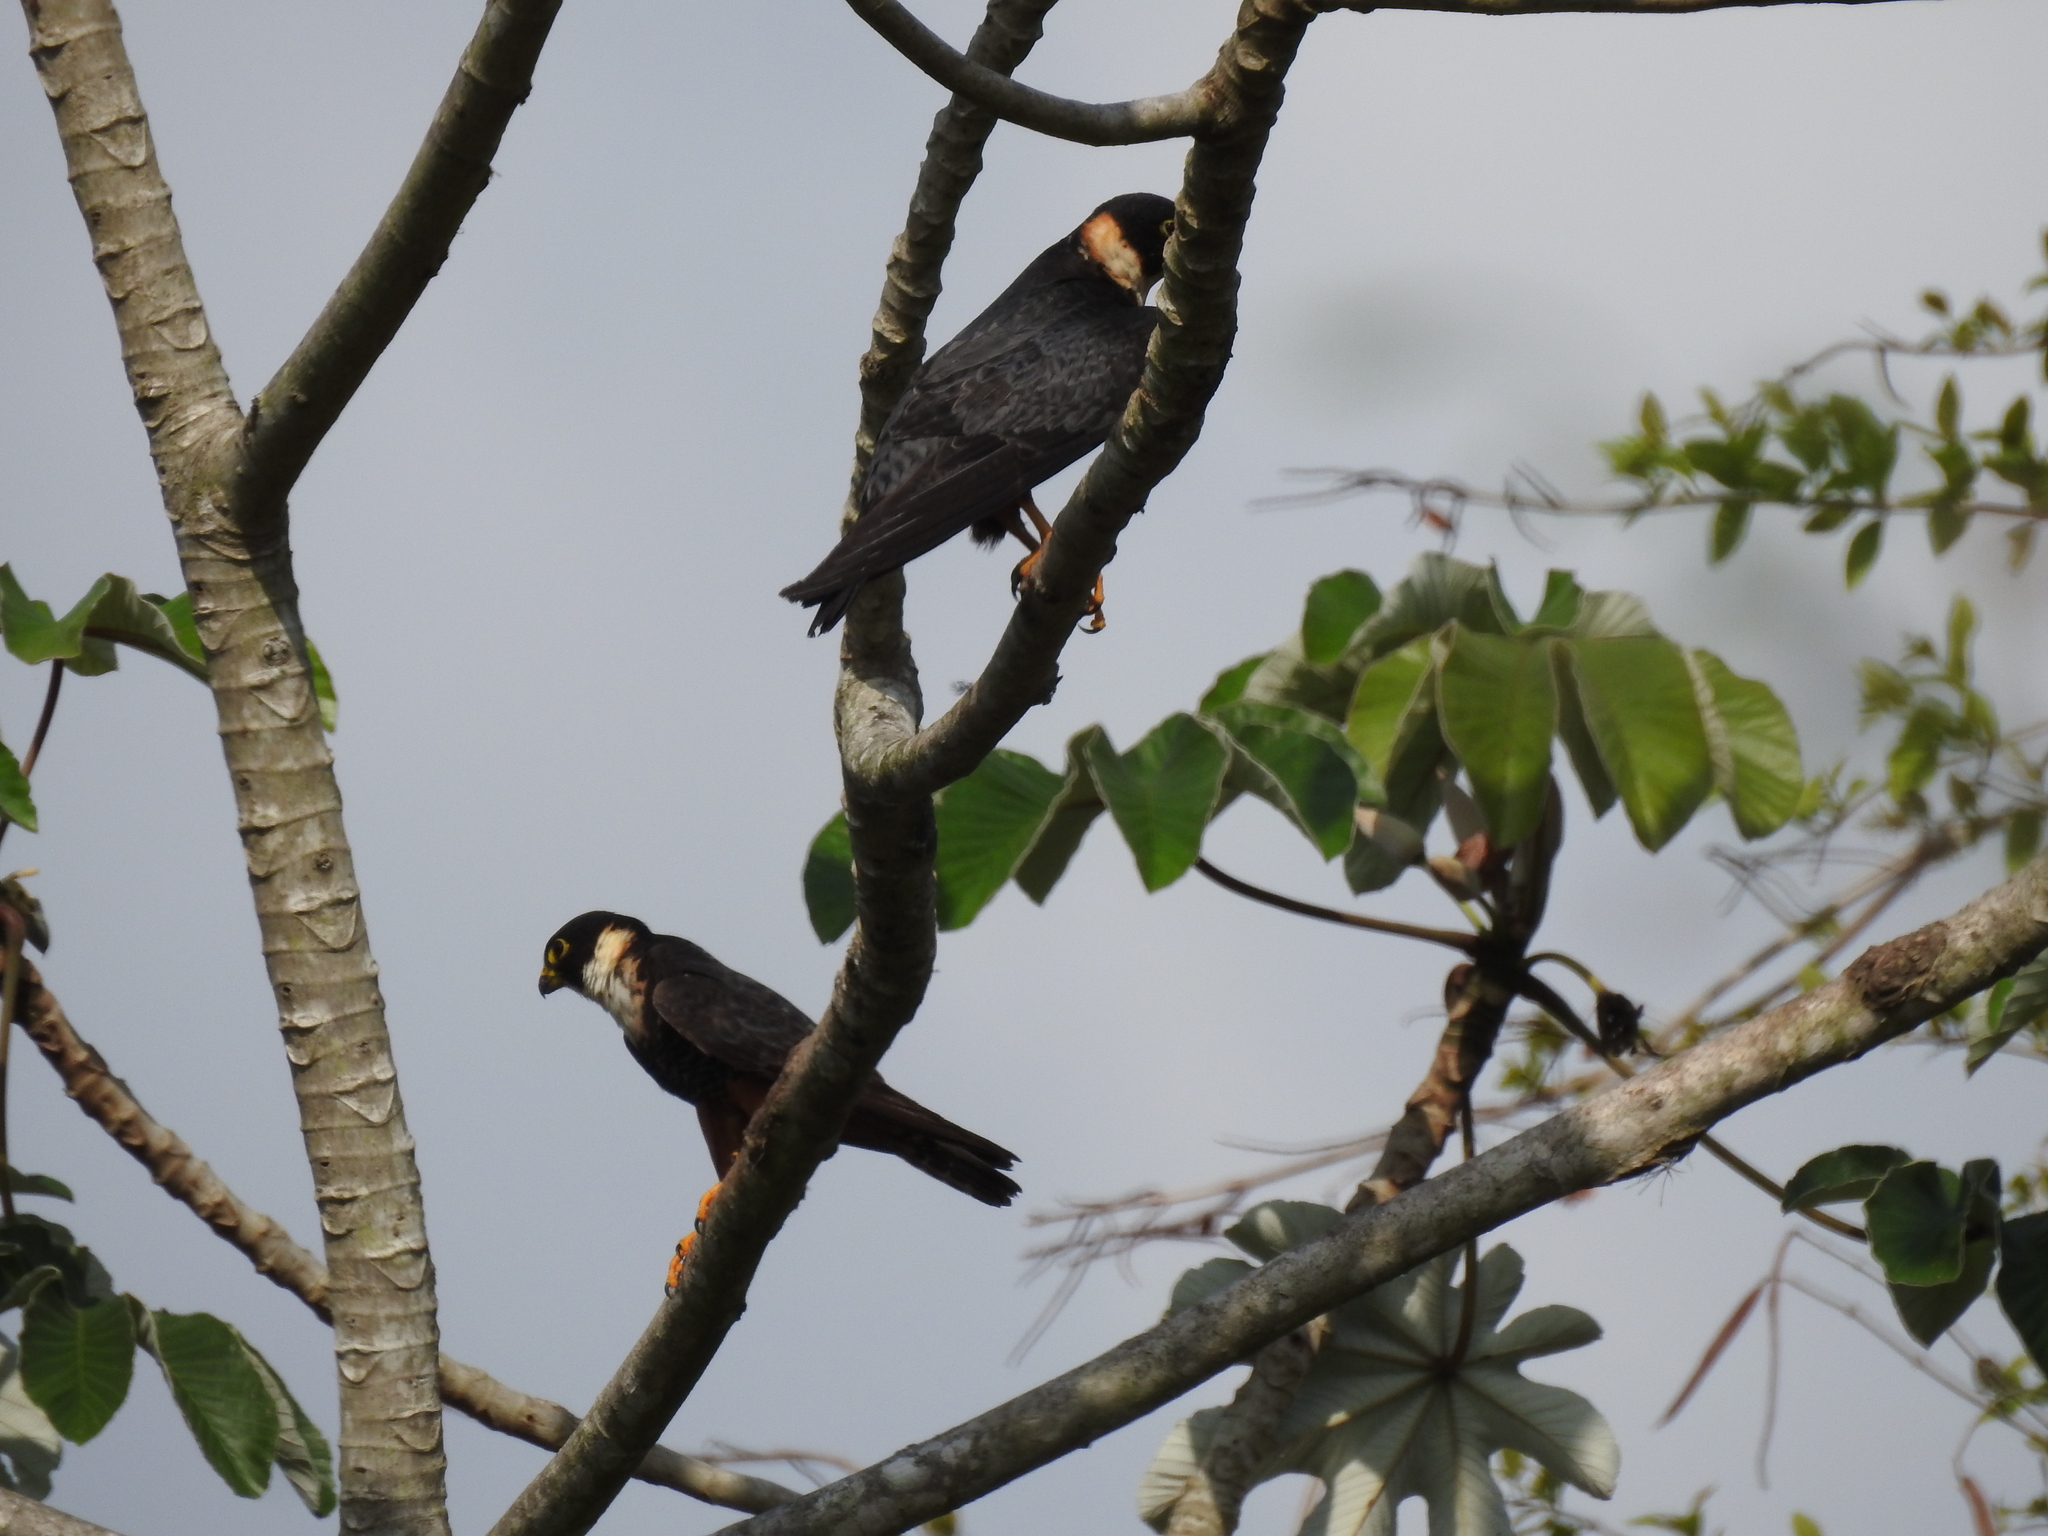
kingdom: Animalia
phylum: Chordata
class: Aves
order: Falconiformes
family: Falconidae
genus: Falco
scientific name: Falco rufigularis
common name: Bat falcon
